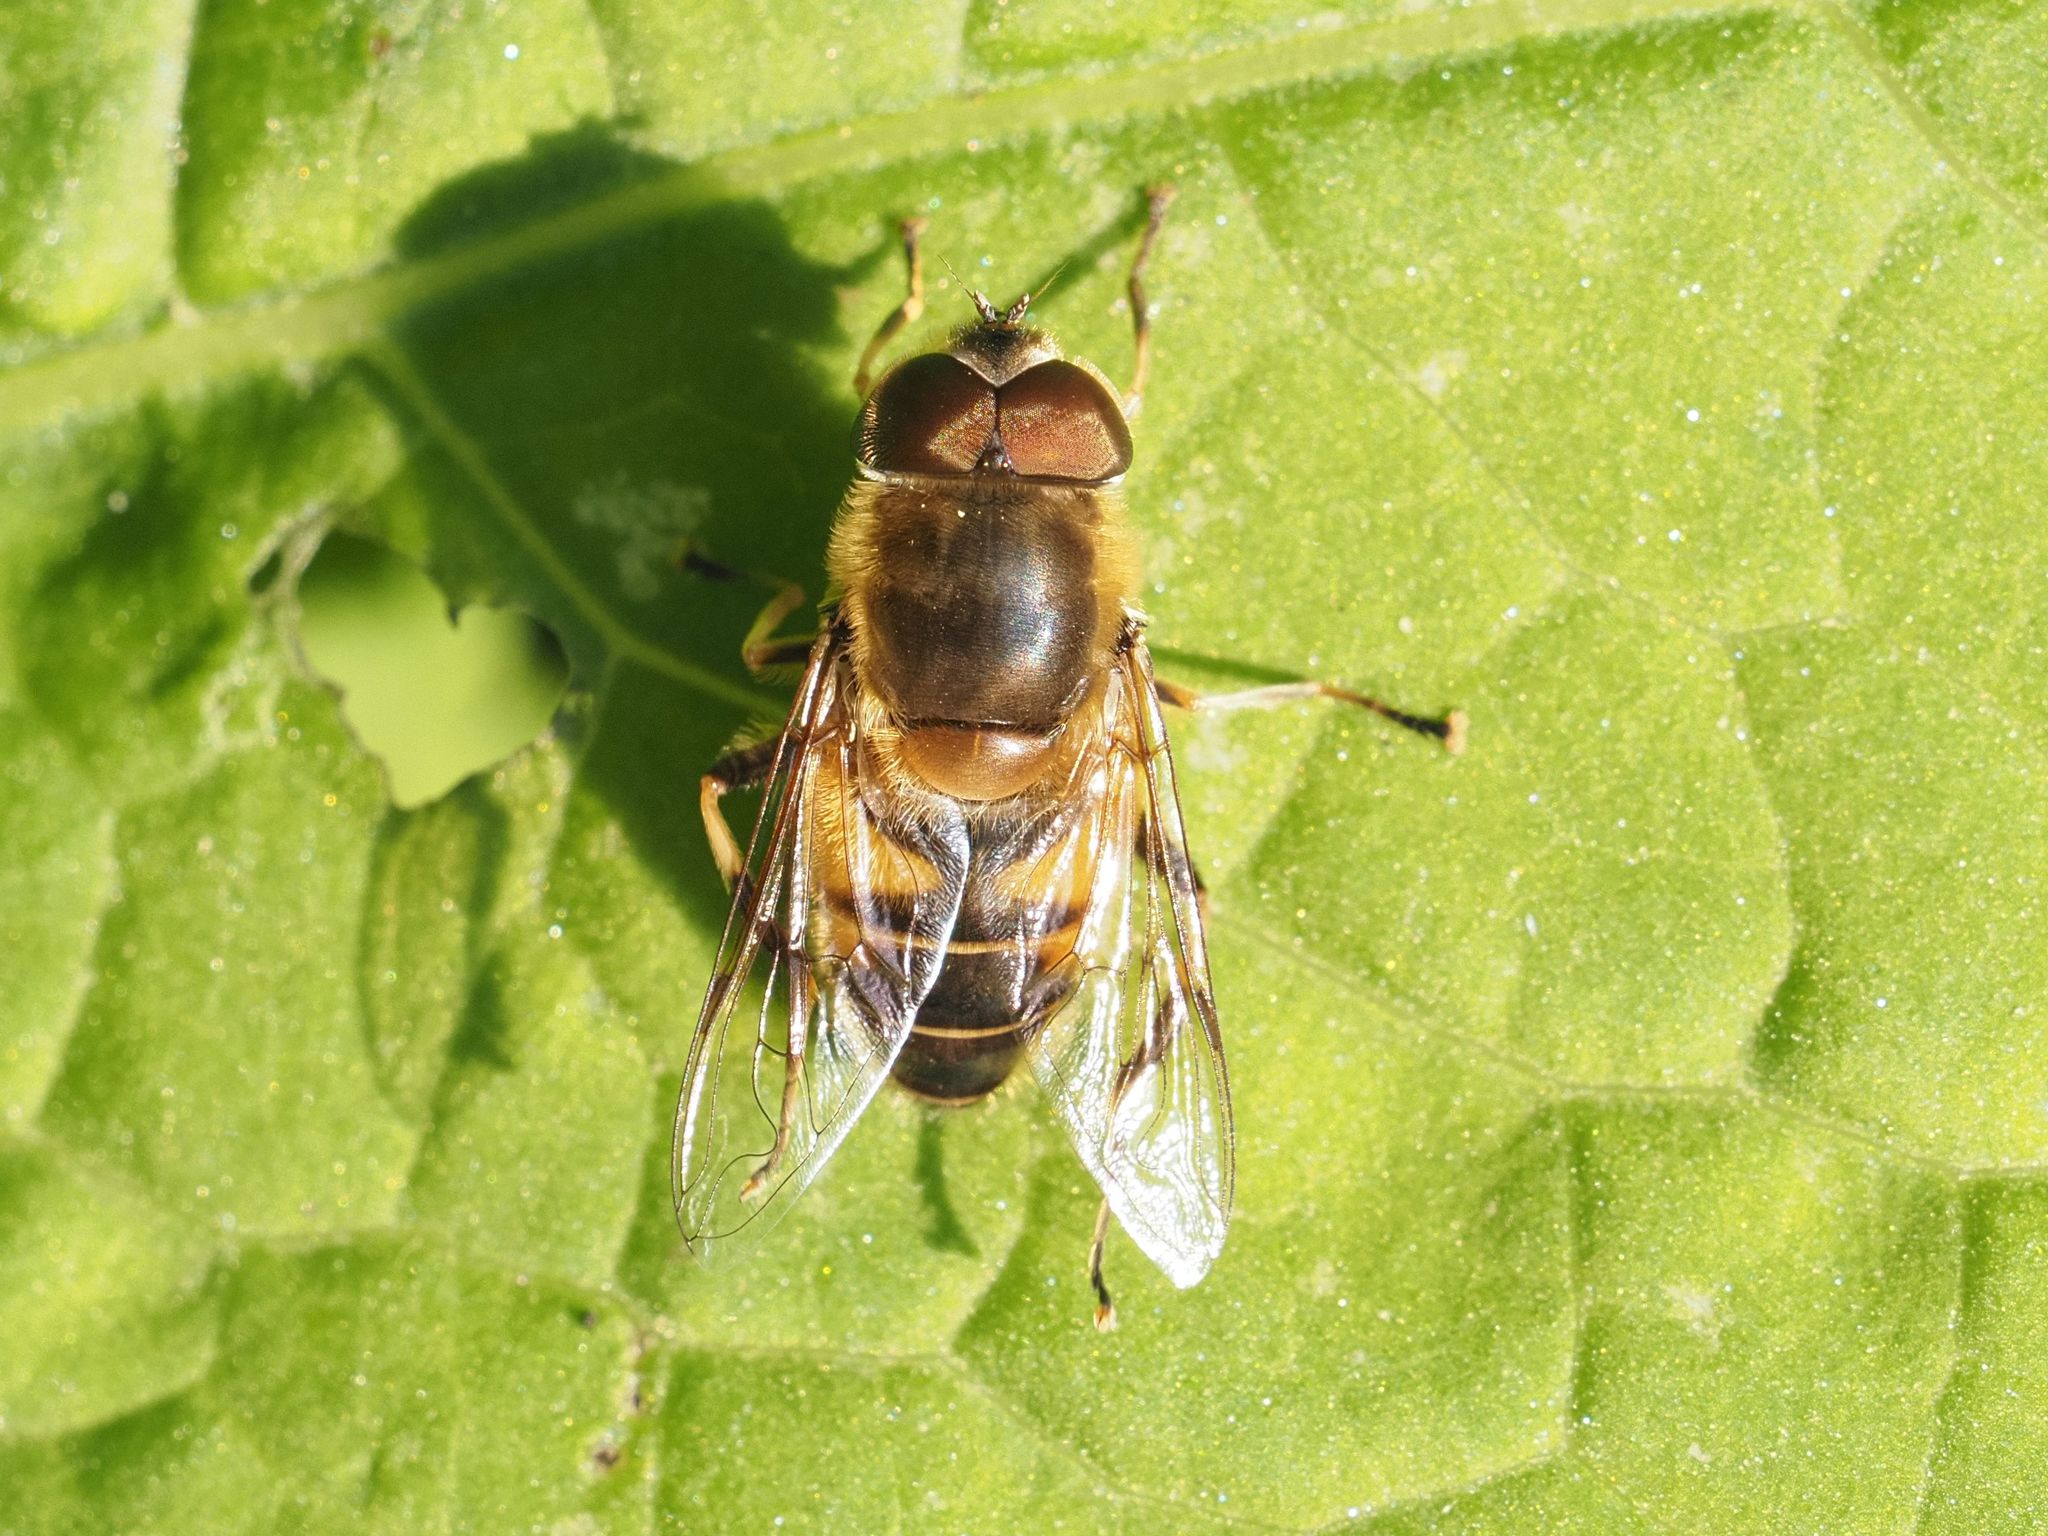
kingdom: Animalia
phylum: Arthropoda
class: Insecta
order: Diptera
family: Syrphidae
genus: Eristalis
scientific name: Eristalis pertinax
